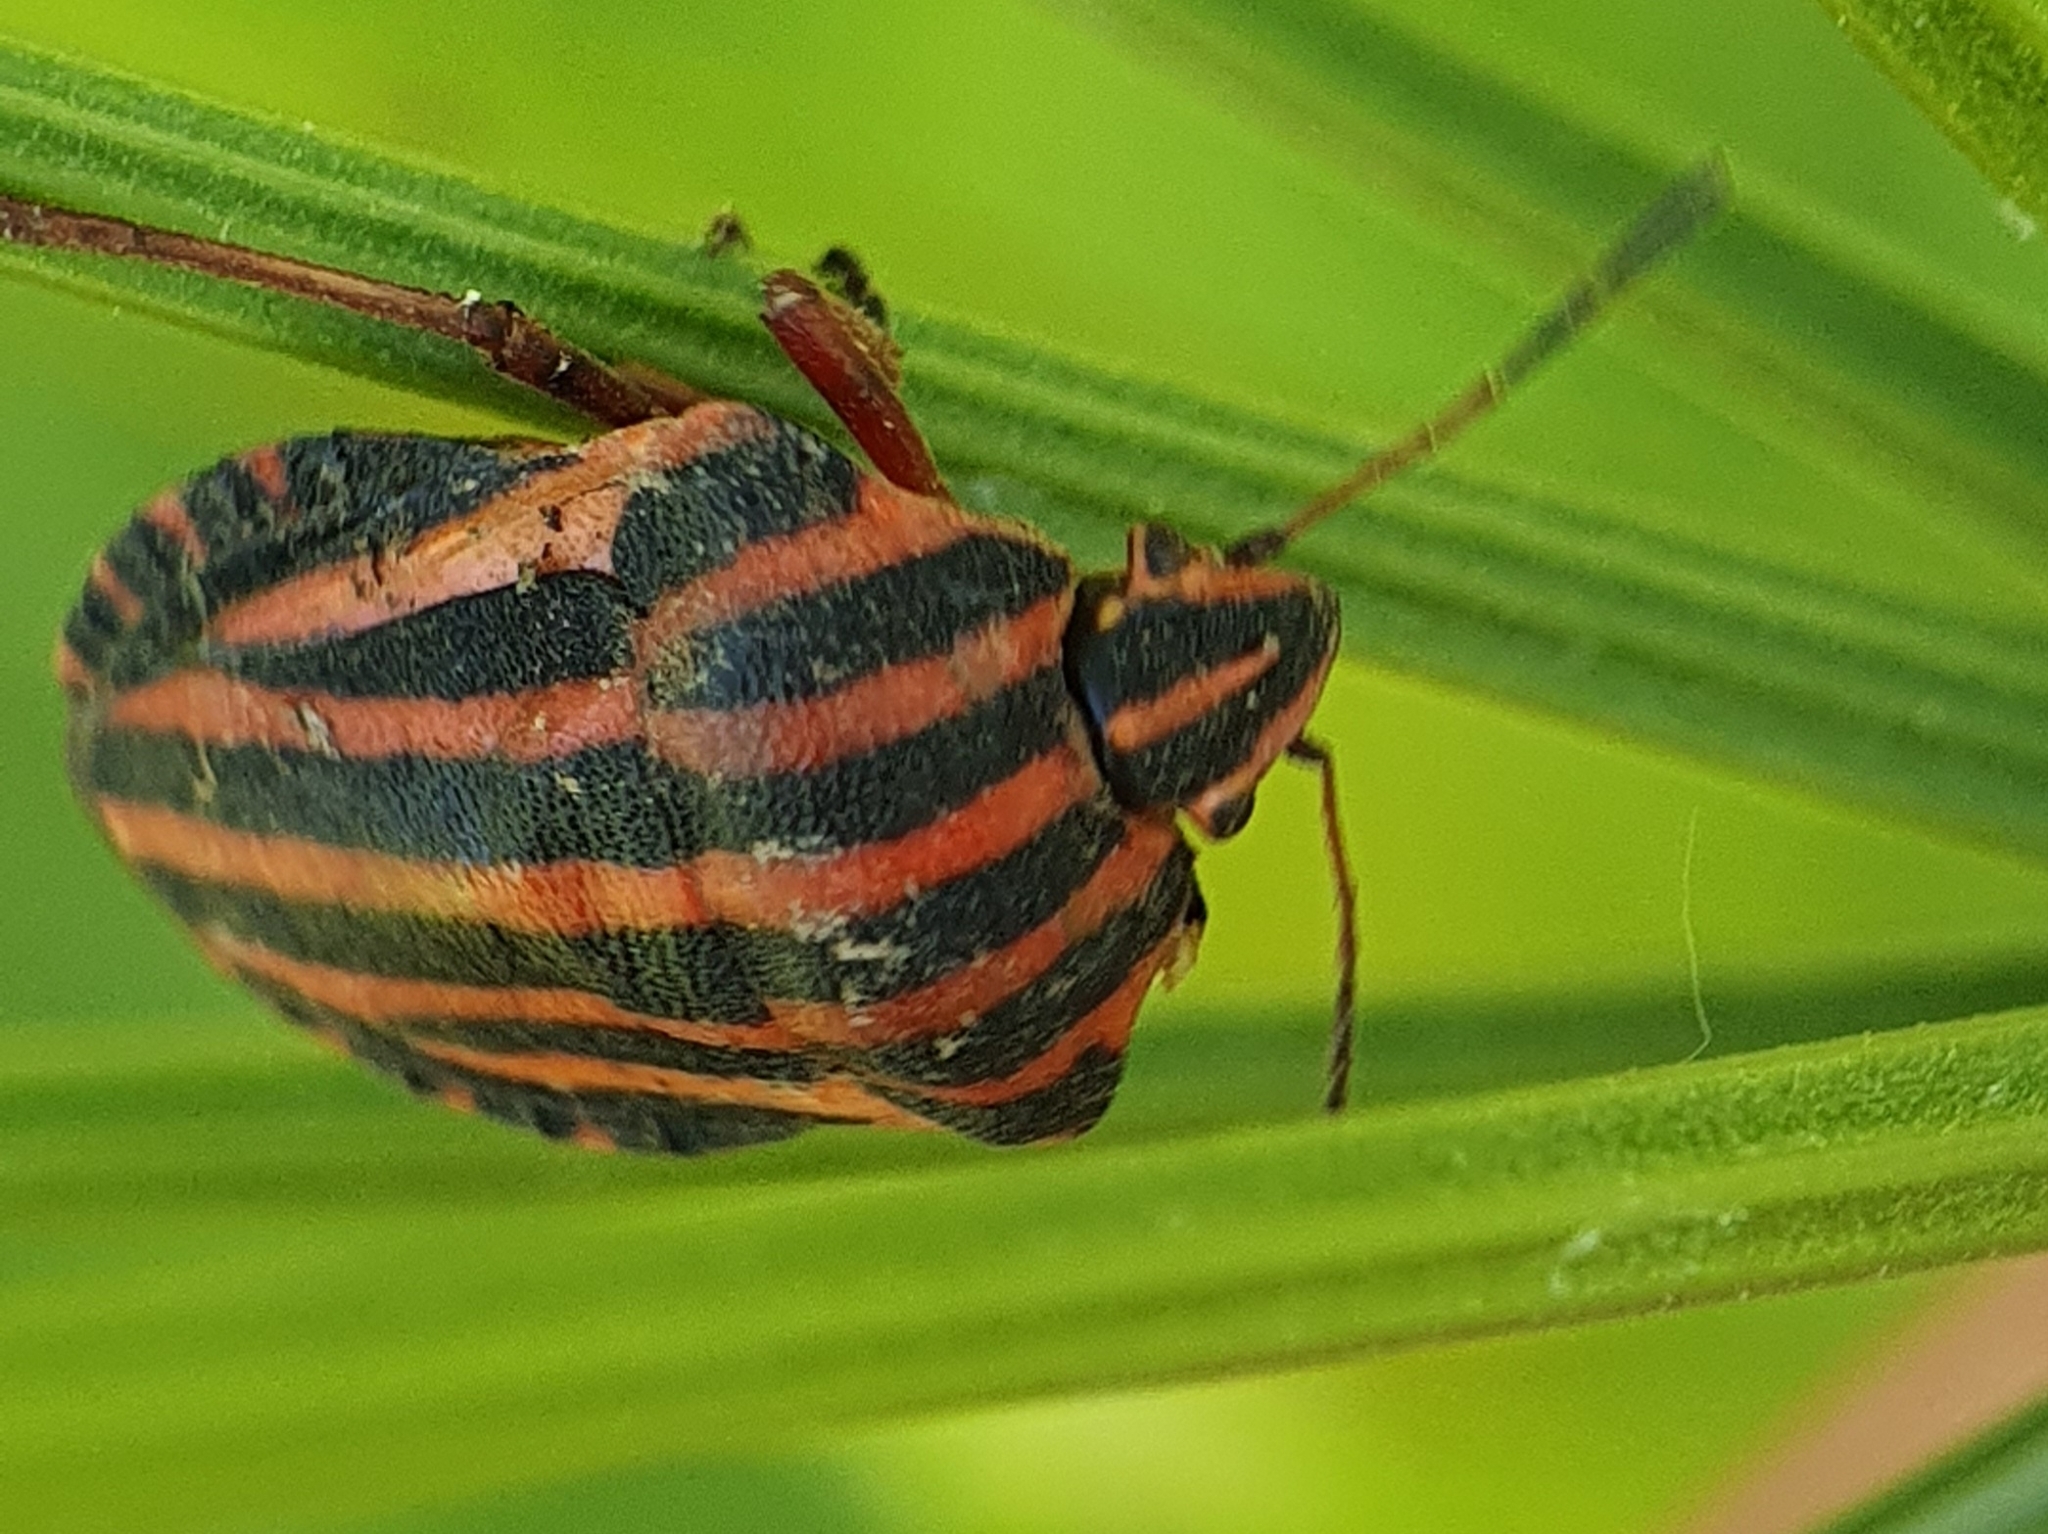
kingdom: Animalia
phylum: Arthropoda
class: Insecta
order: Hemiptera
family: Pentatomidae
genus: Graphosoma
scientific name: Graphosoma lineatum
